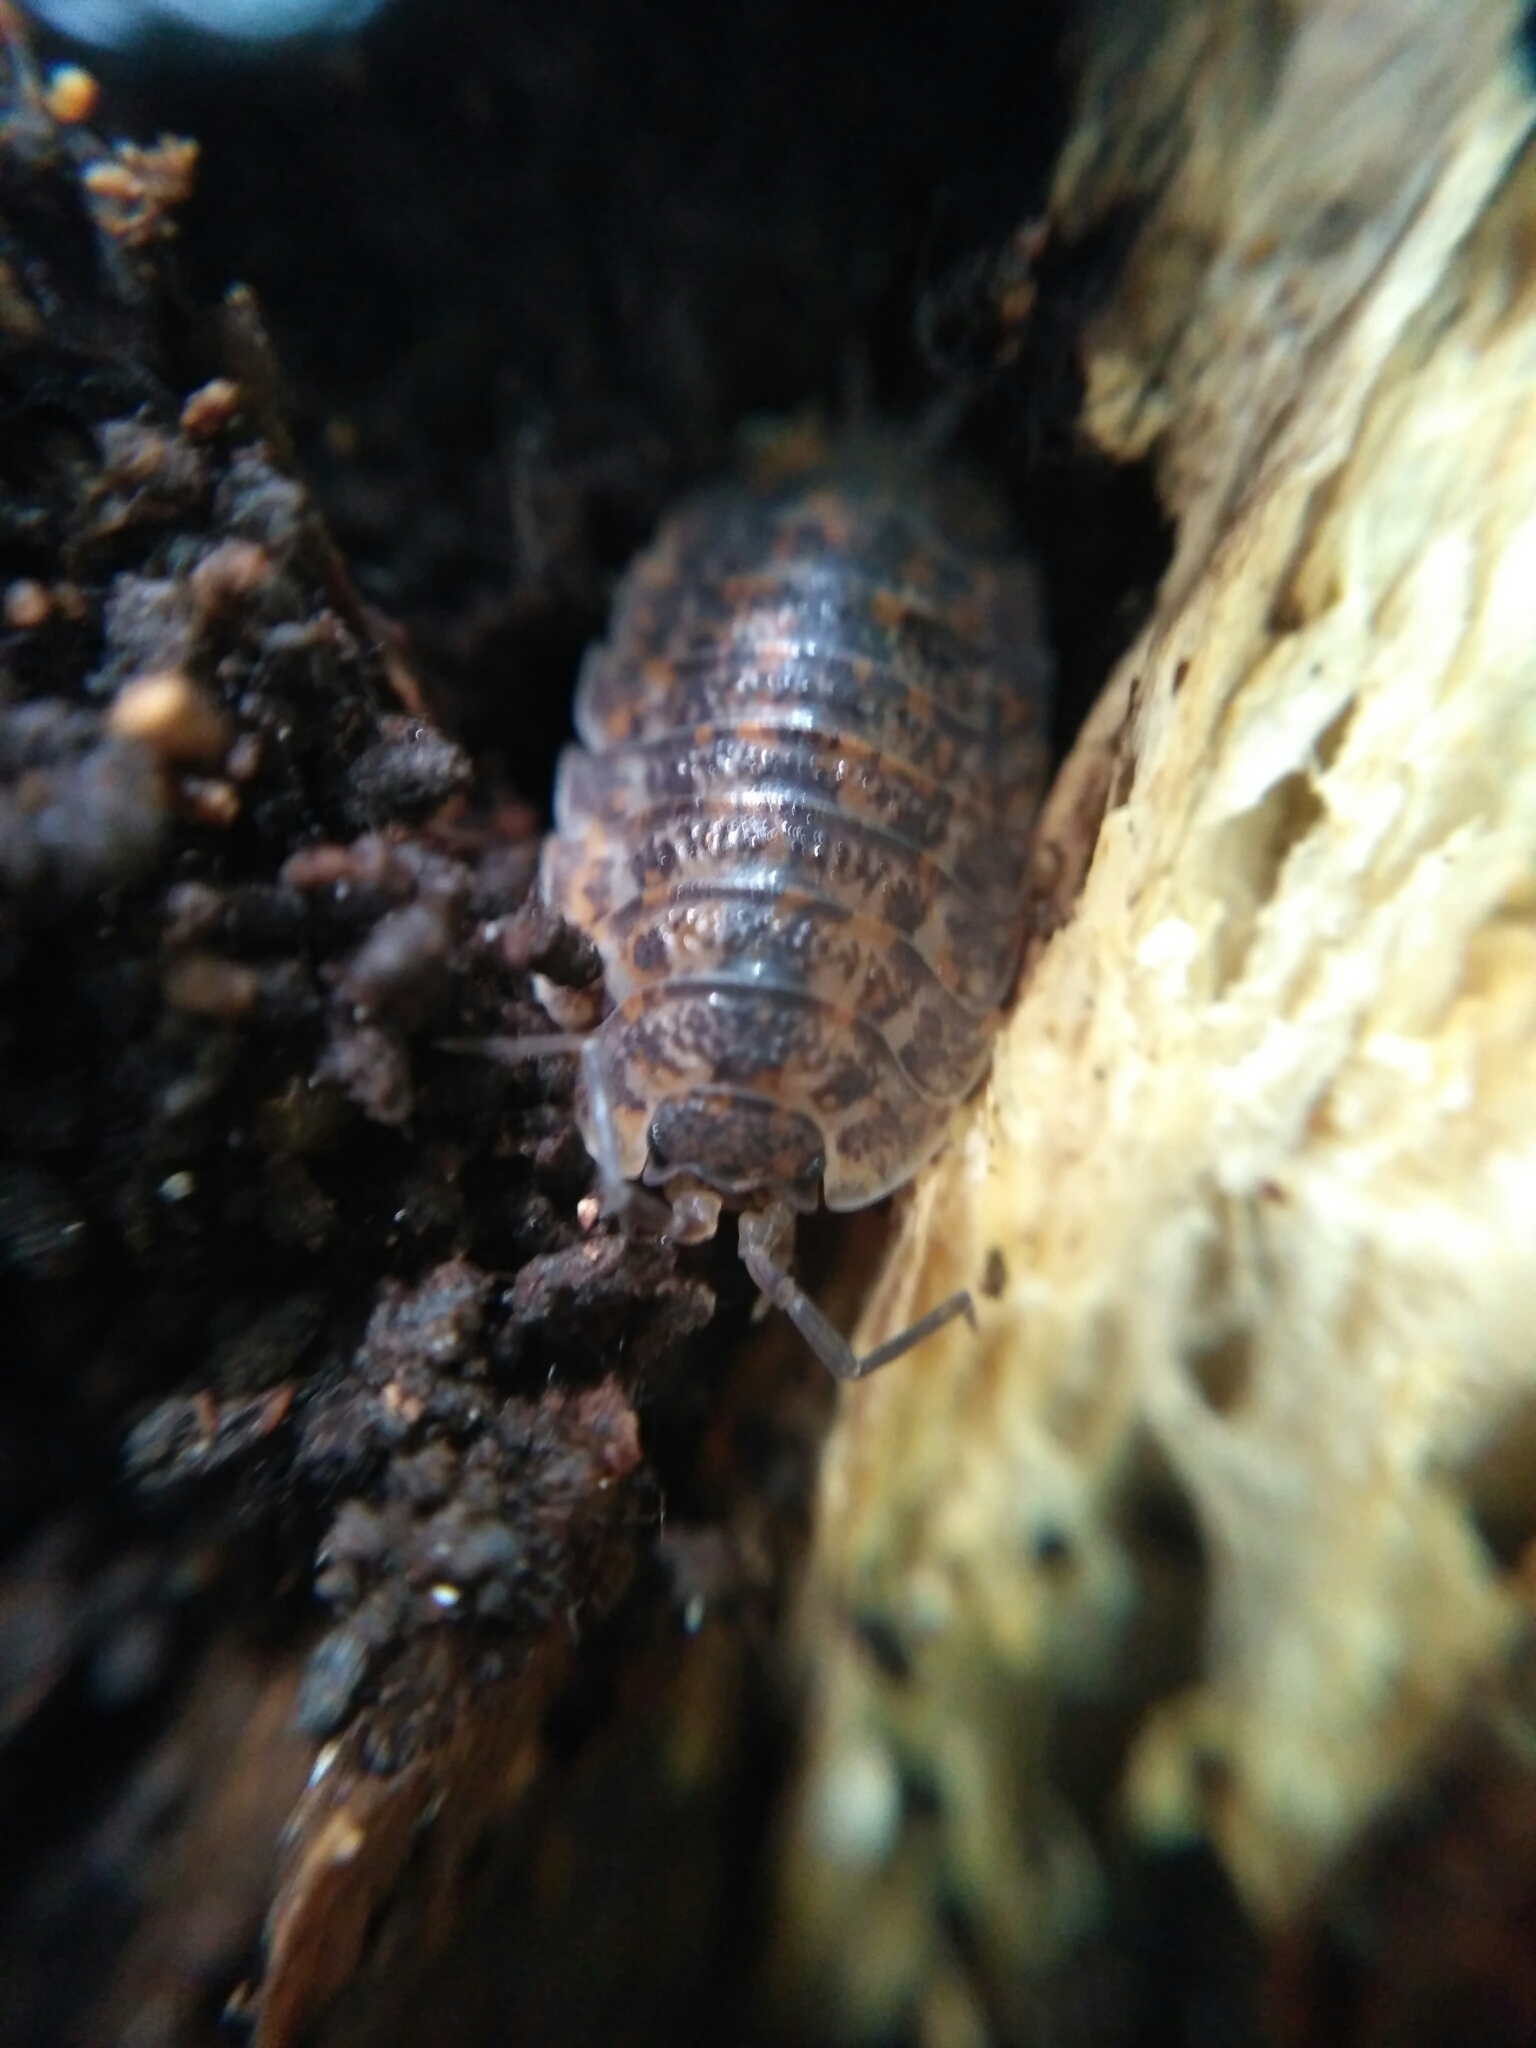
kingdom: Animalia
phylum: Arthropoda
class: Malacostraca
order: Isopoda
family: Trachelipodidae
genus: Trachelipus
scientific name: Trachelipus rathkii
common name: Isopod
